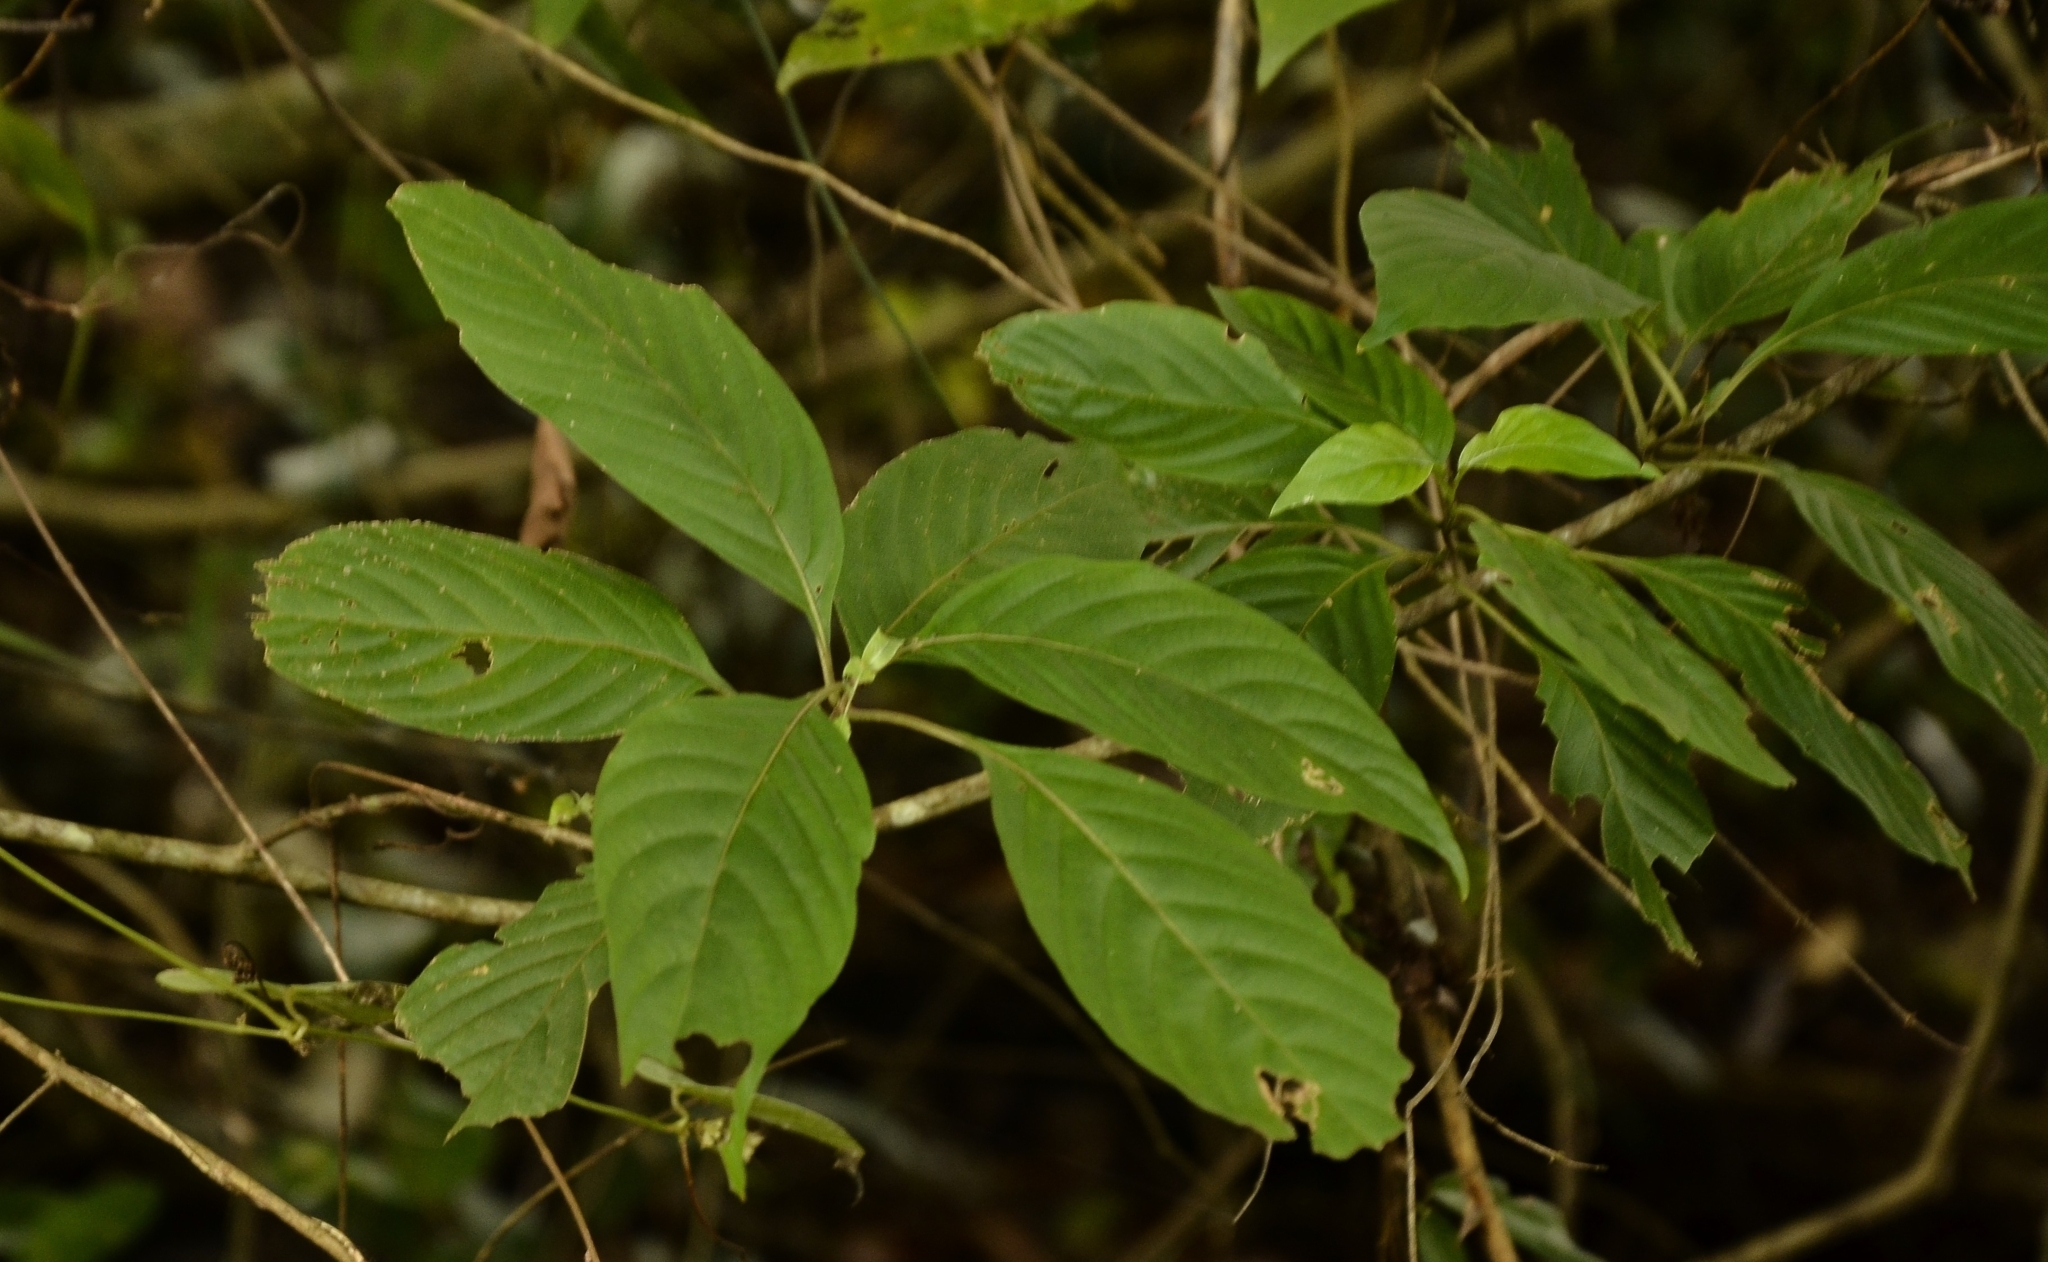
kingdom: Plantae
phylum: Tracheophyta
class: Magnoliopsida
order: Gentianales
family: Rubiaceae
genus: Mussaenda
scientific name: Mussaenda frondosa
